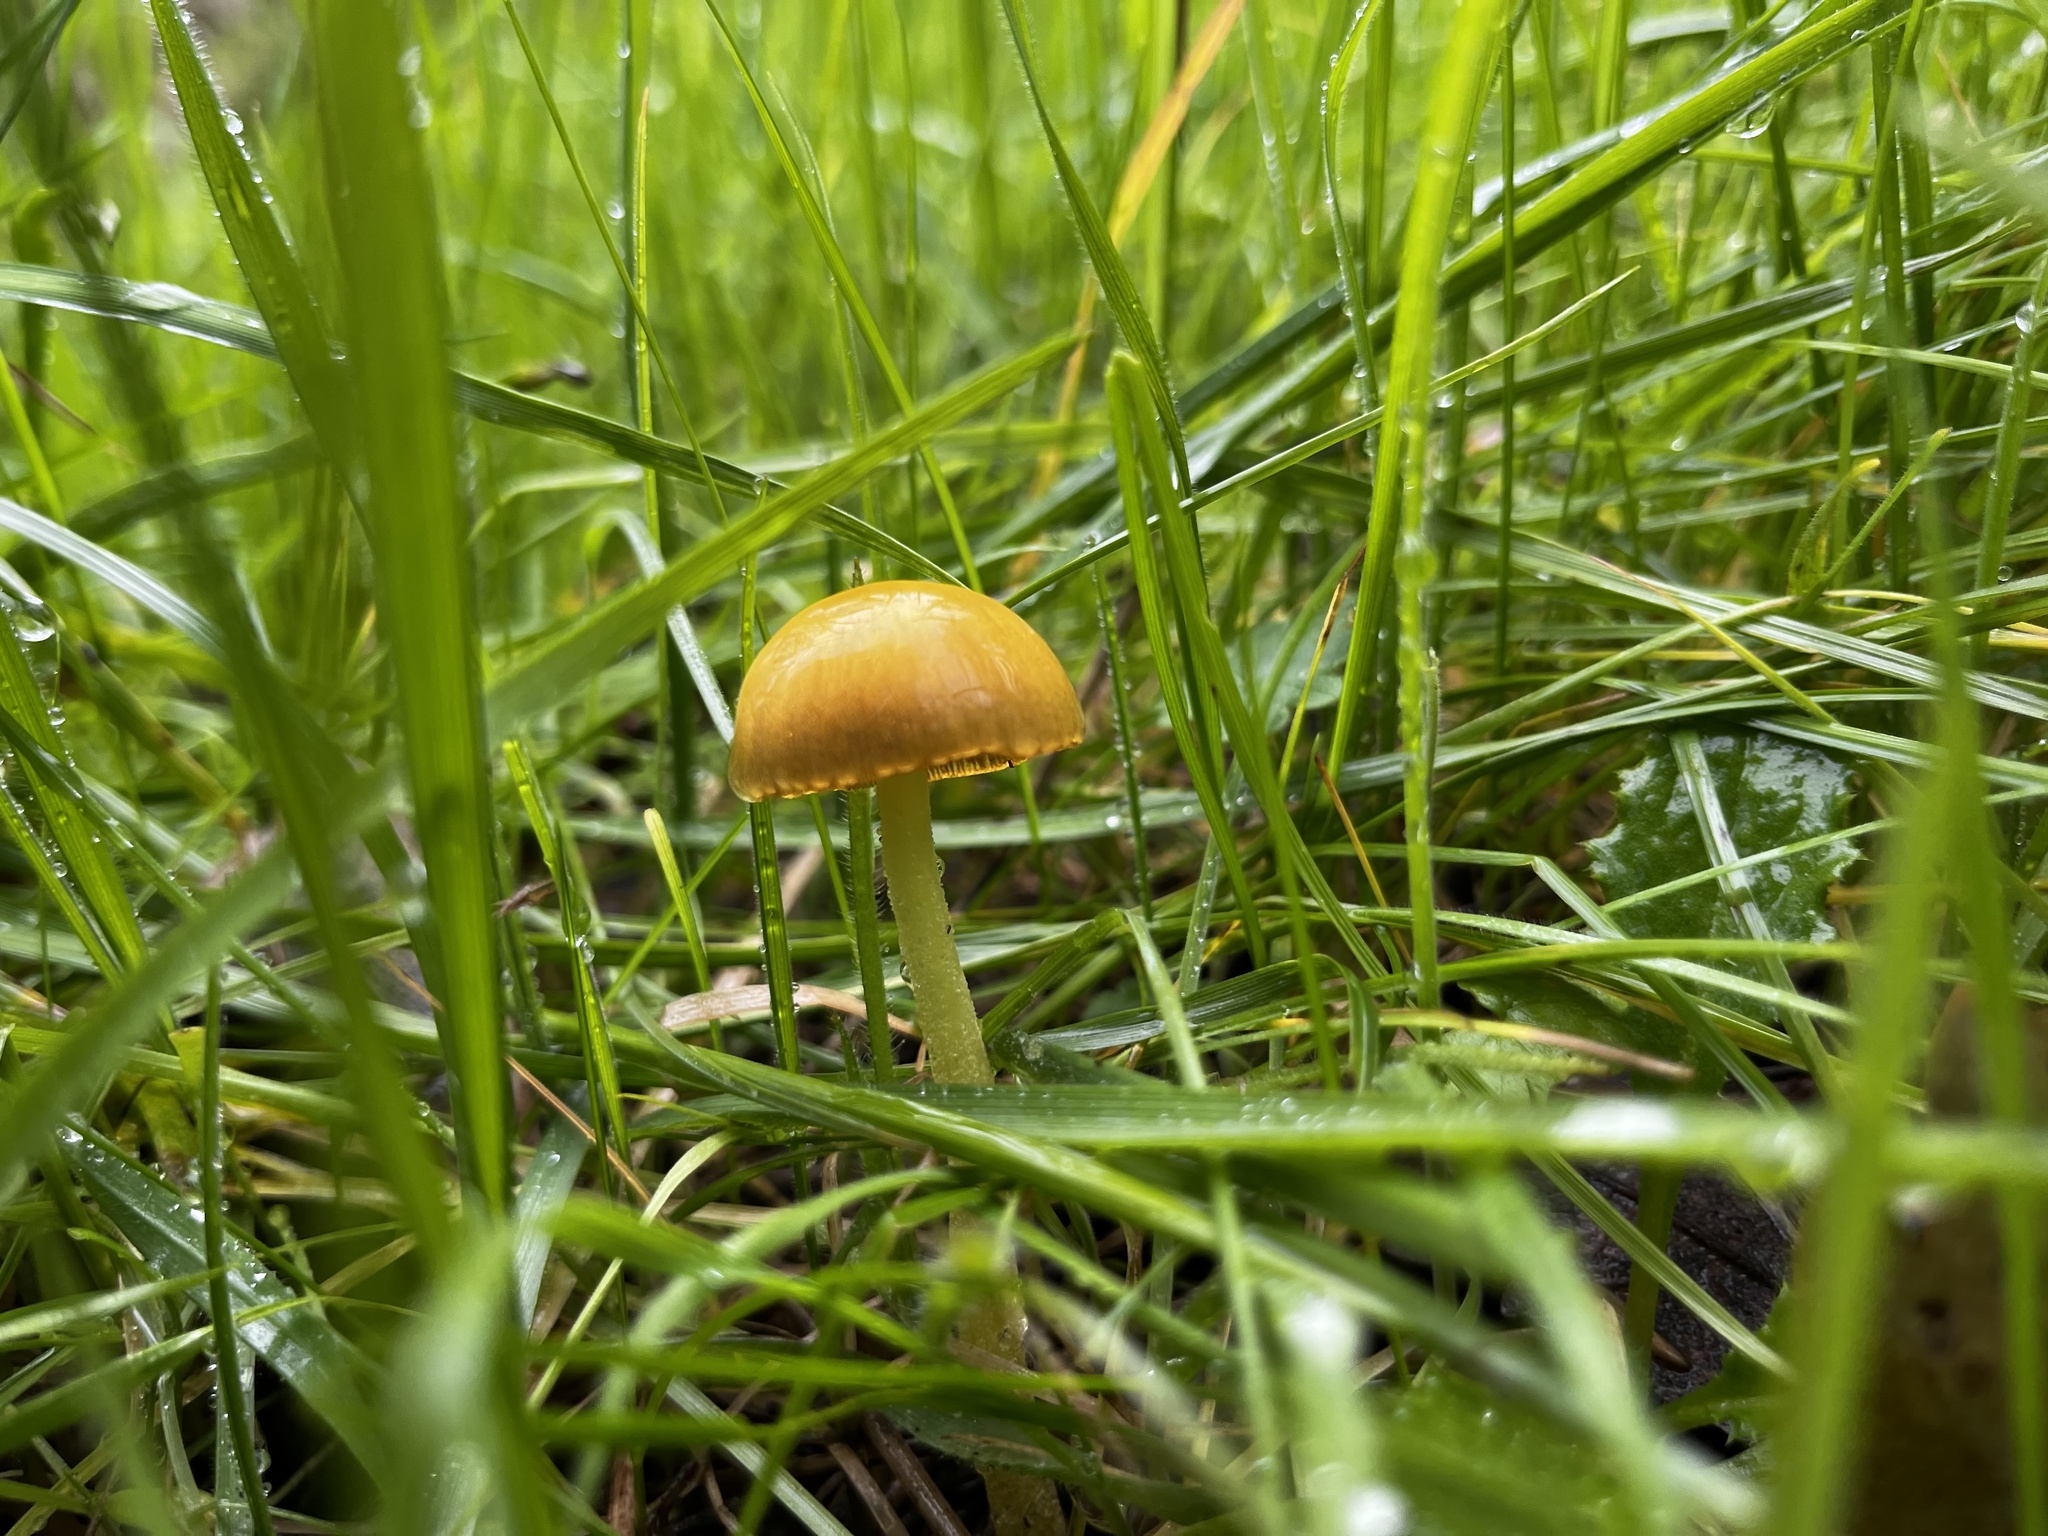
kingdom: Fungi
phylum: Basidiomycota
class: Agaricomycetes
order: Agaricales
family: Bolbitiaceae
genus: Bolbitius
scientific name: Bolbitius titubans
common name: Yellow fieldcap
